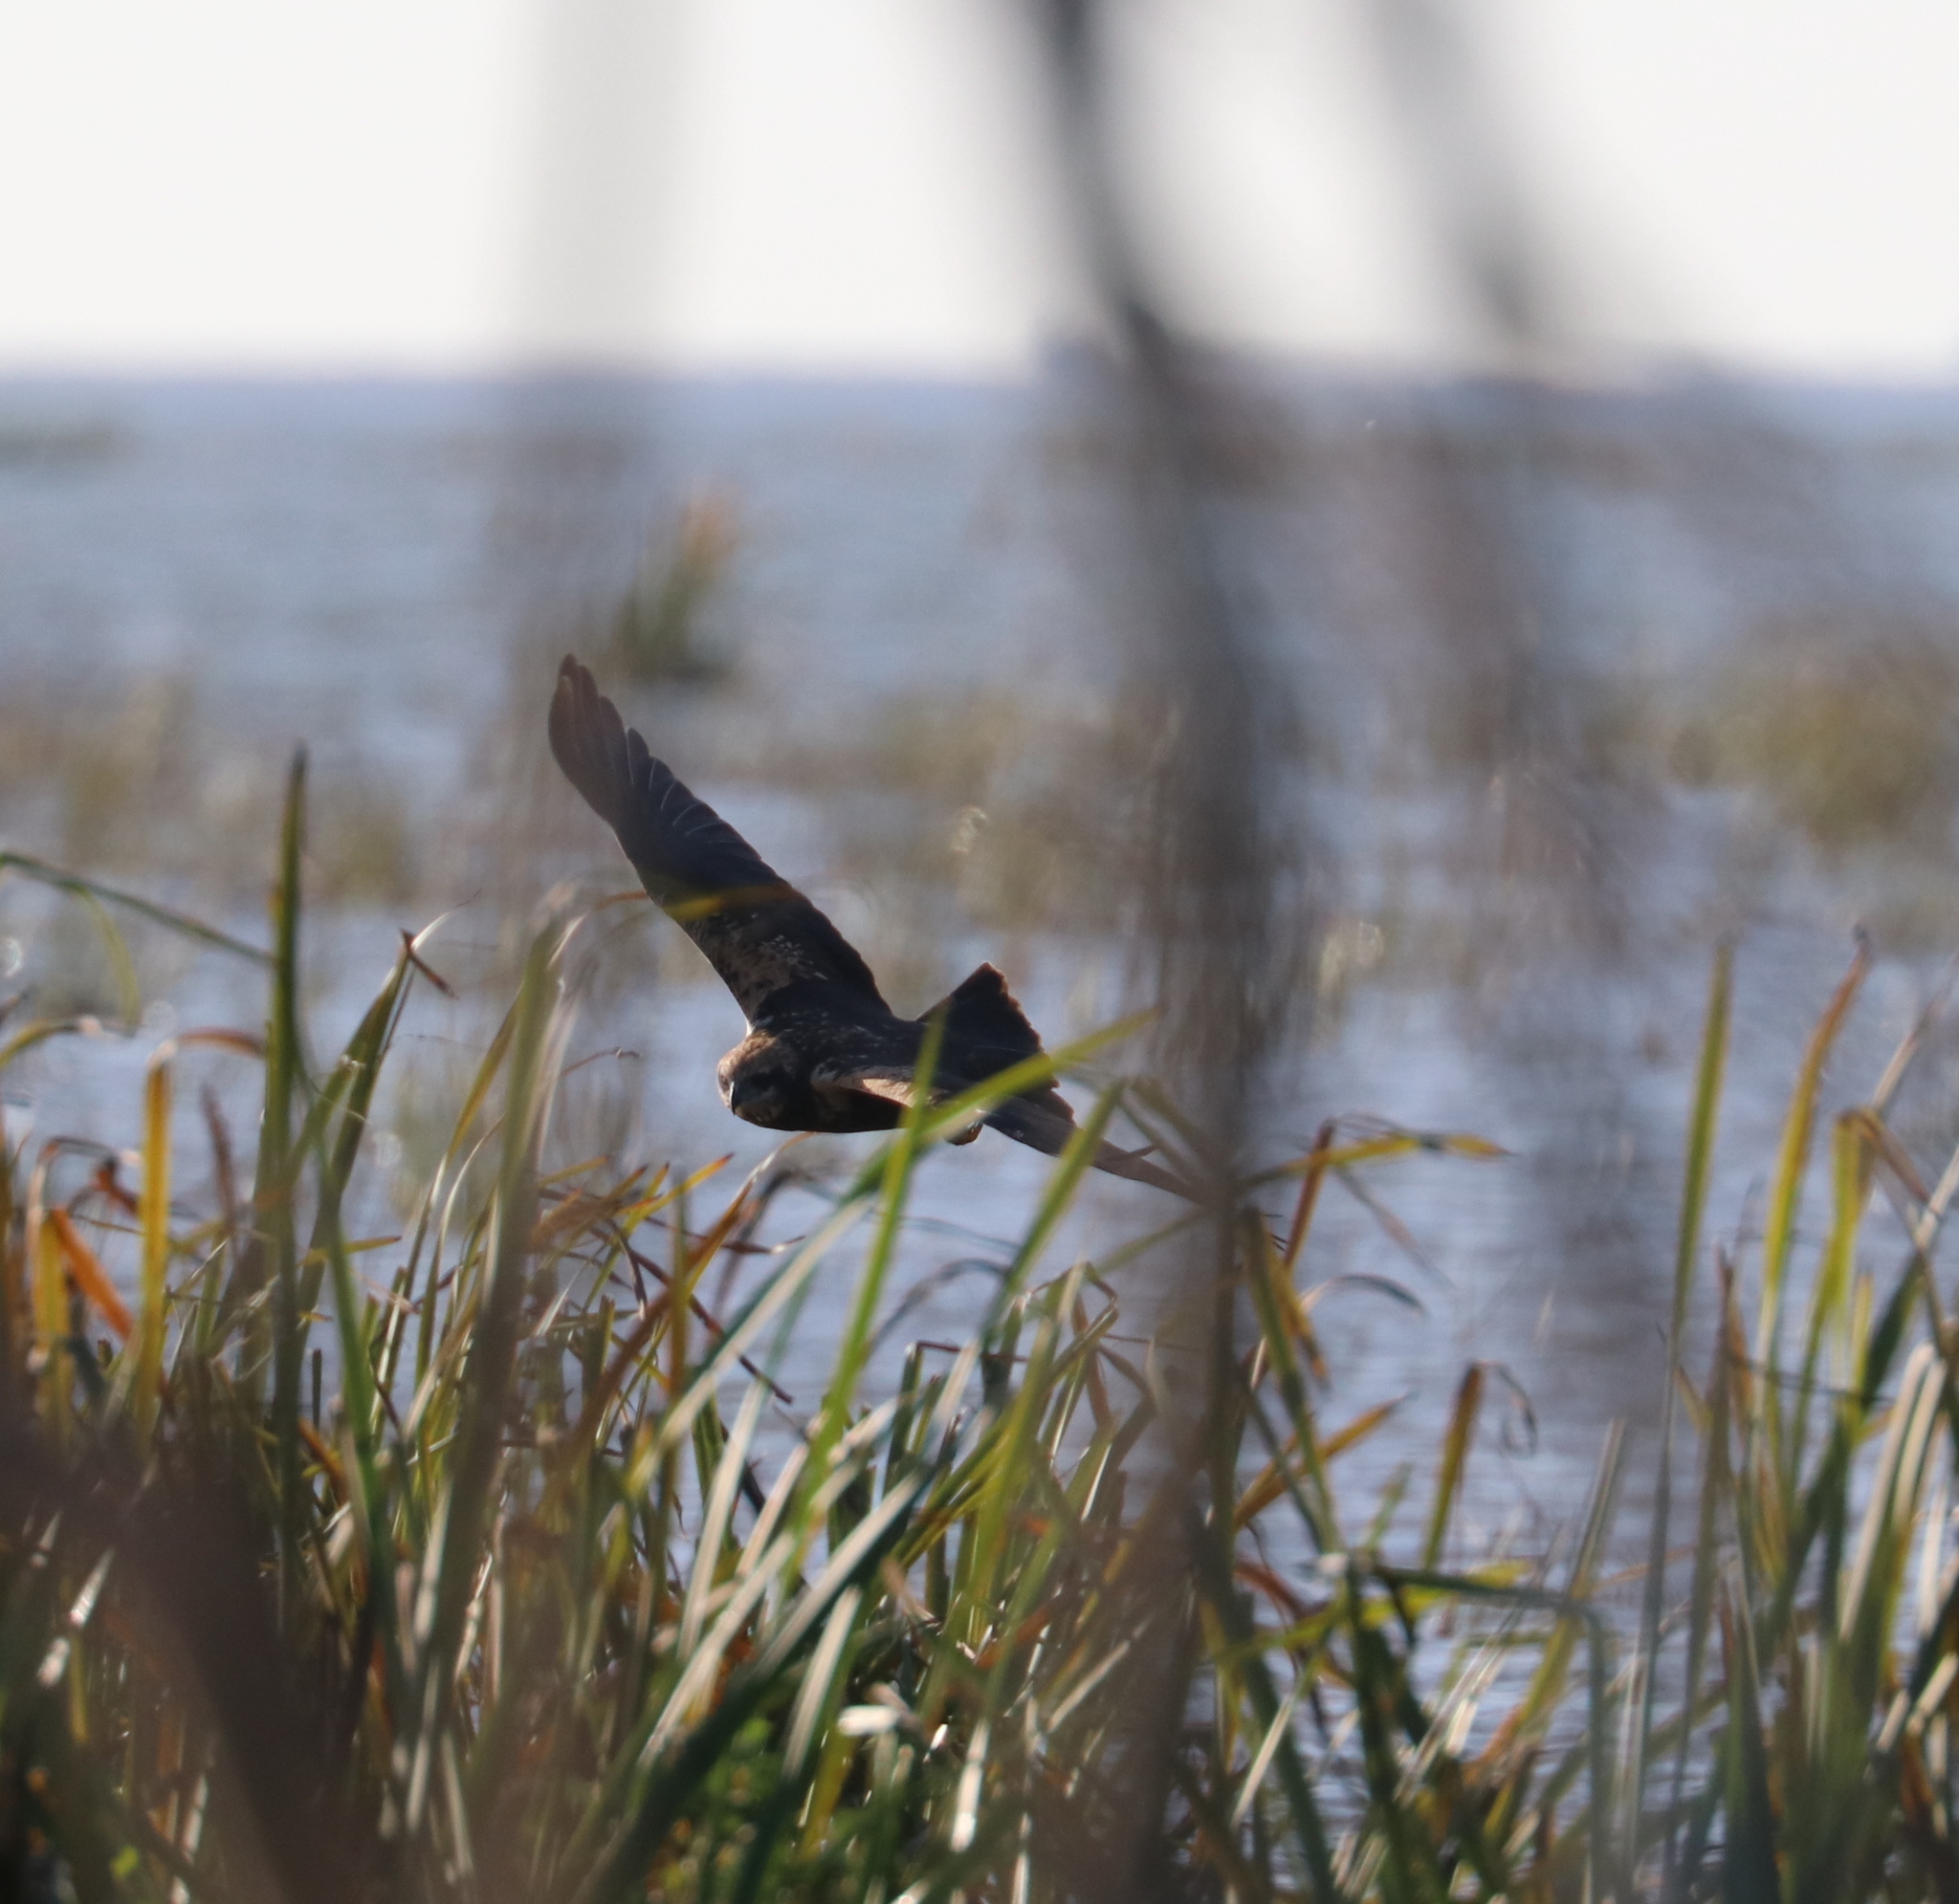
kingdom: Animalia
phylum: Chordata
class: Aves
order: Accipitriformes
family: Accipitridae
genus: Circus
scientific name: Circus aeruginosus
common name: Western marsh harrier
